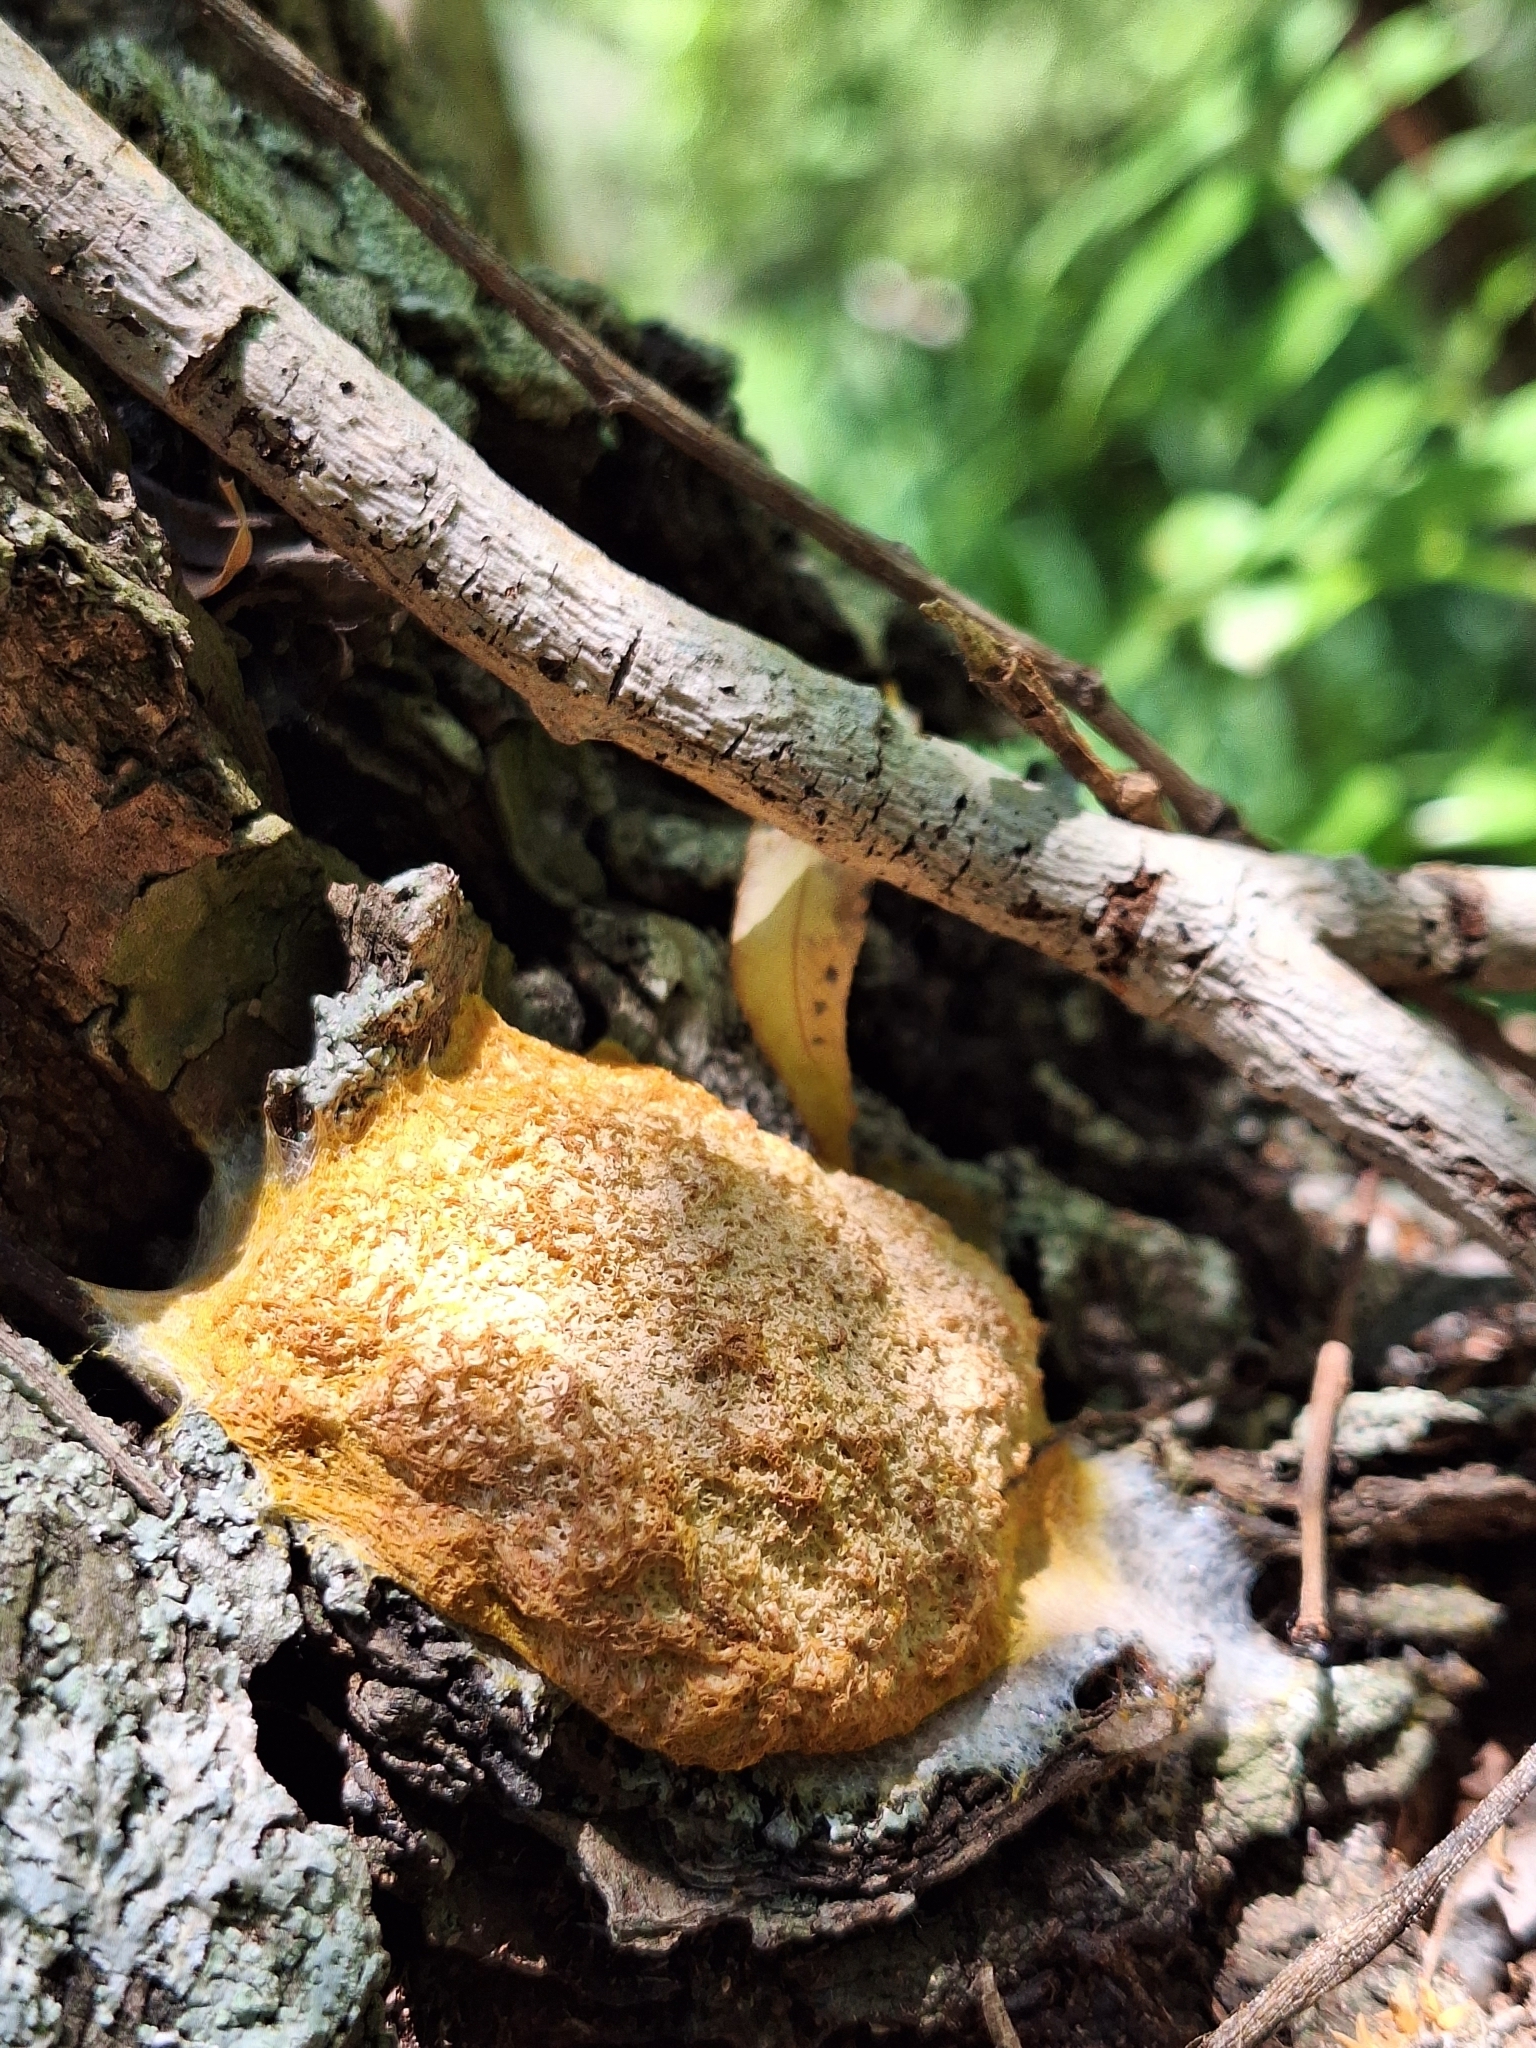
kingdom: Protozoa
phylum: Mycetozoa
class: Myxomycetes
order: Physarales
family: Physaraceae
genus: Fuligo
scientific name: Fuligo septica
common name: Dog vomit slime mold
